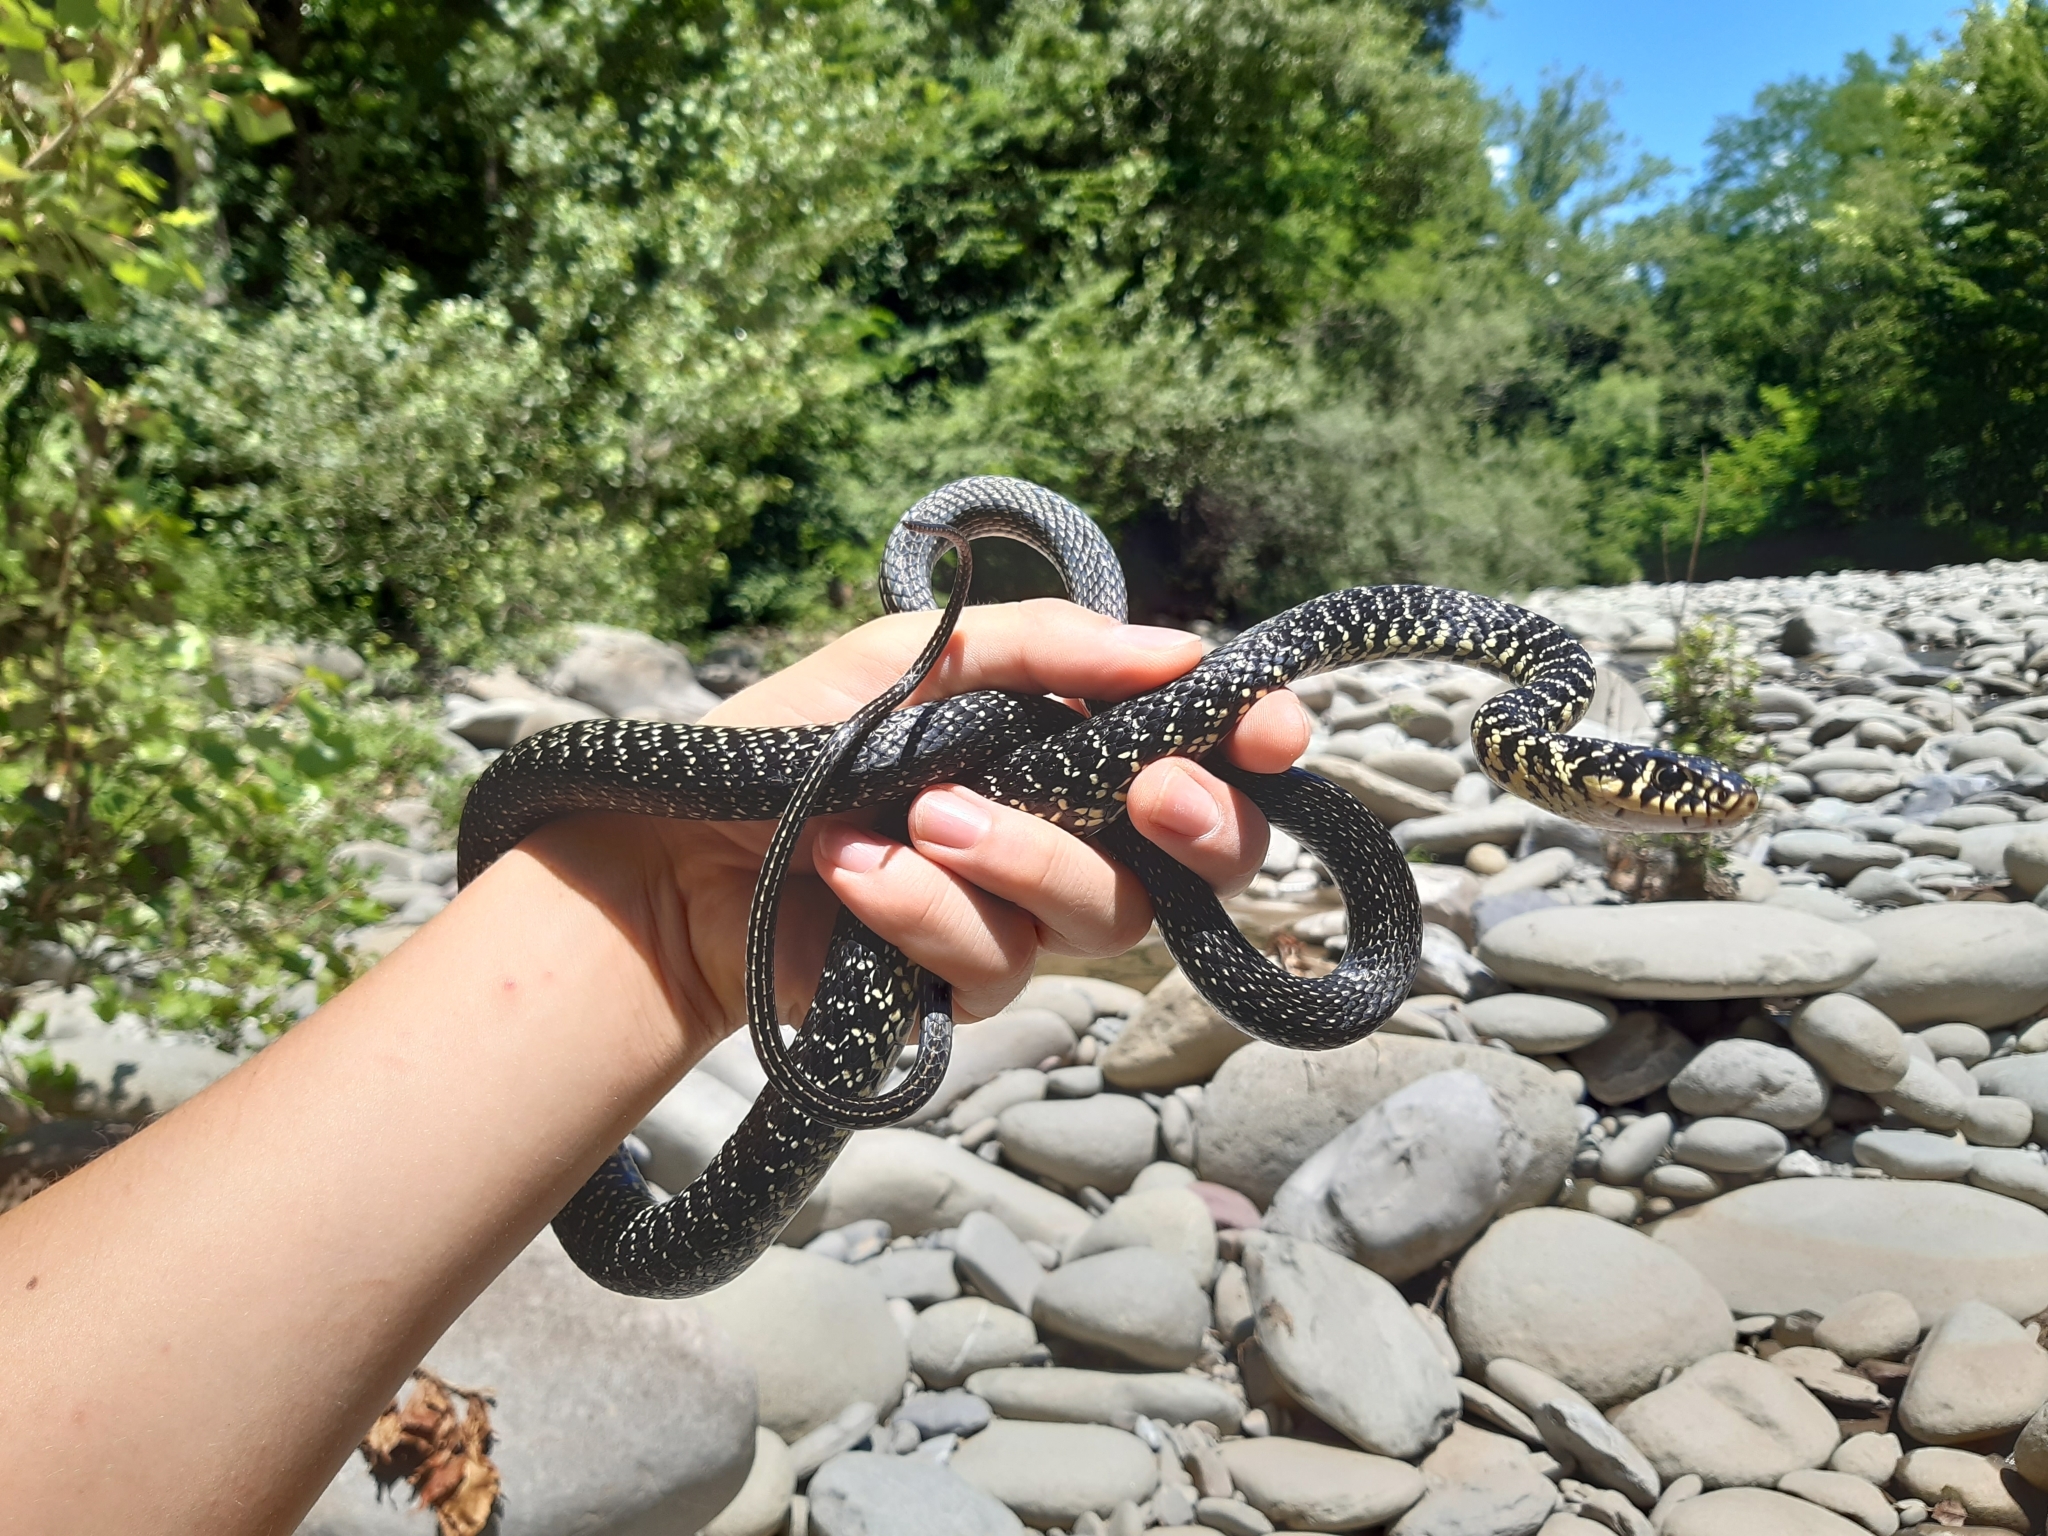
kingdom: Animalia
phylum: Chordata
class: Squamata
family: Colubridae
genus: Hierophis
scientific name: Hierophis viridiflavus
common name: Green whip snake
